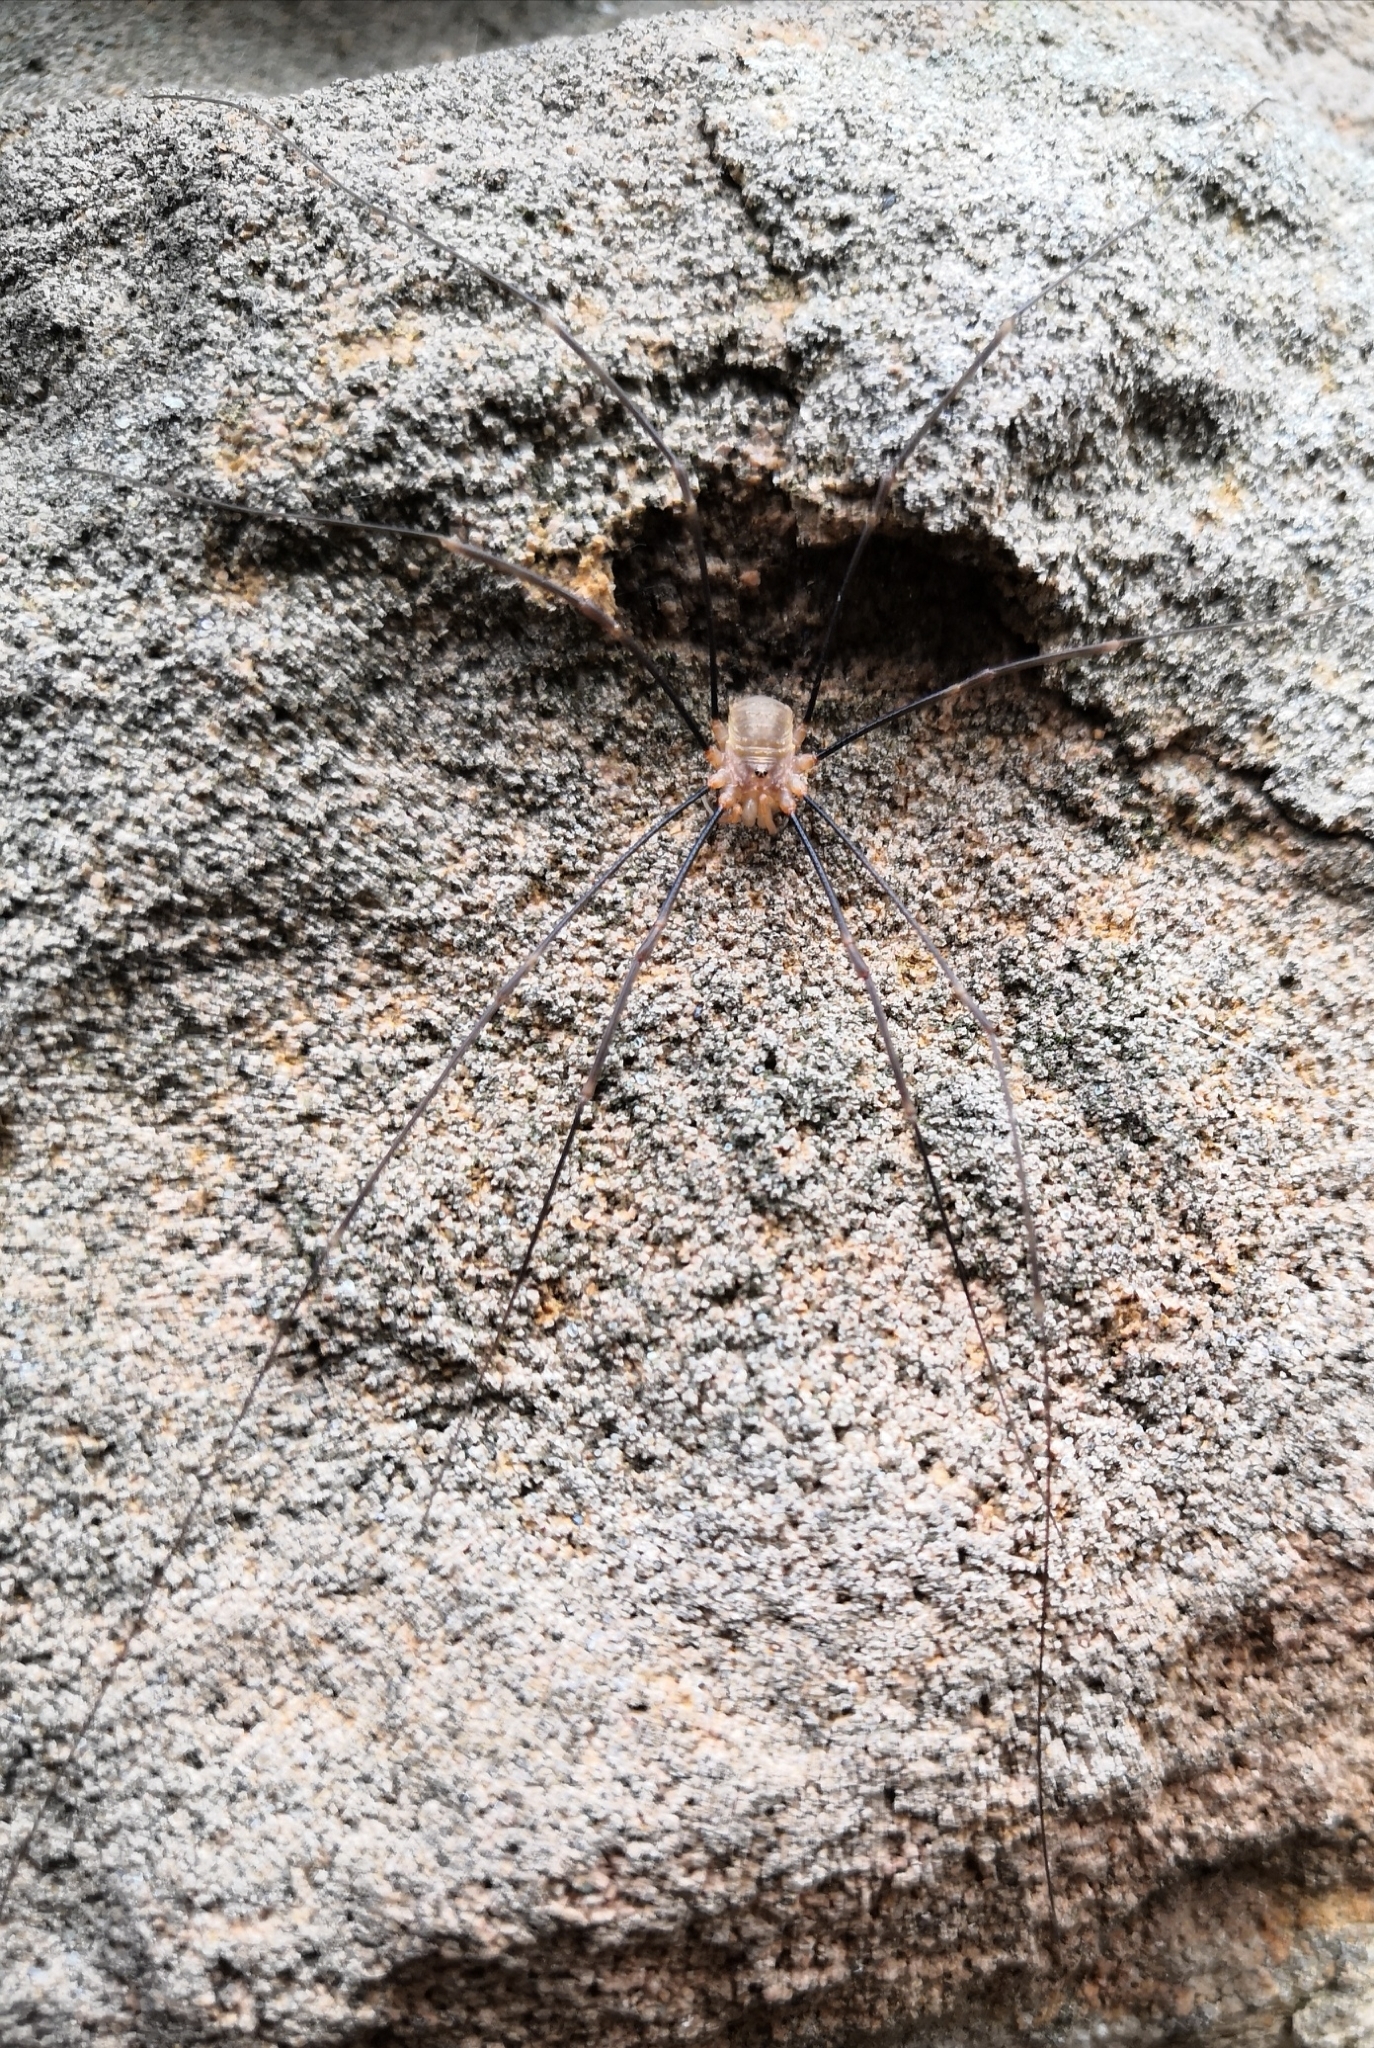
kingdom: Animalia
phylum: Arthropoda
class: Arachnida
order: Opiliones
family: Phalangiidae
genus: Opilio
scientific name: Opilio canestrinii
